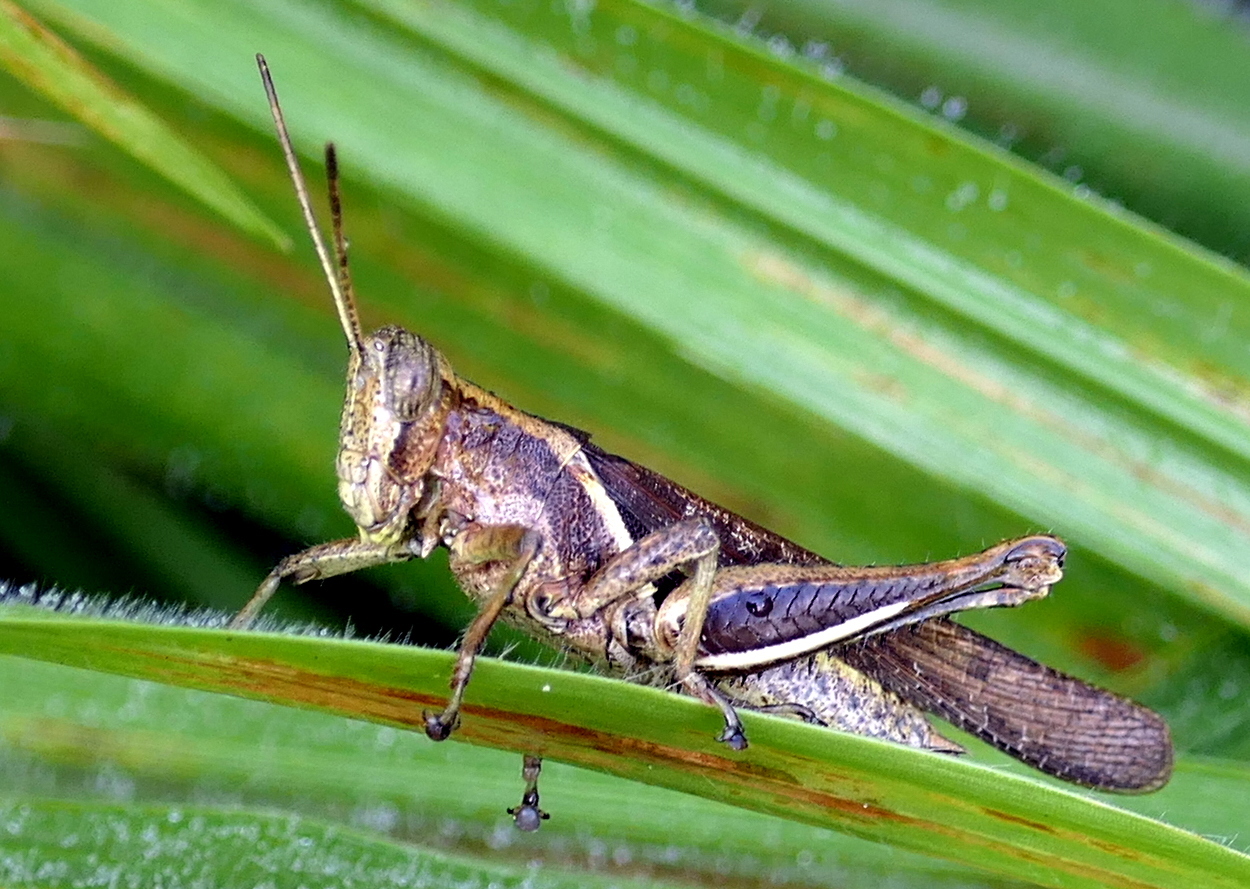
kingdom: Animalia
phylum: Arthropoda
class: Insecta
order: Orthoptera
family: Acrididae
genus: Abracris
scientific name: Abracris flavolineata
